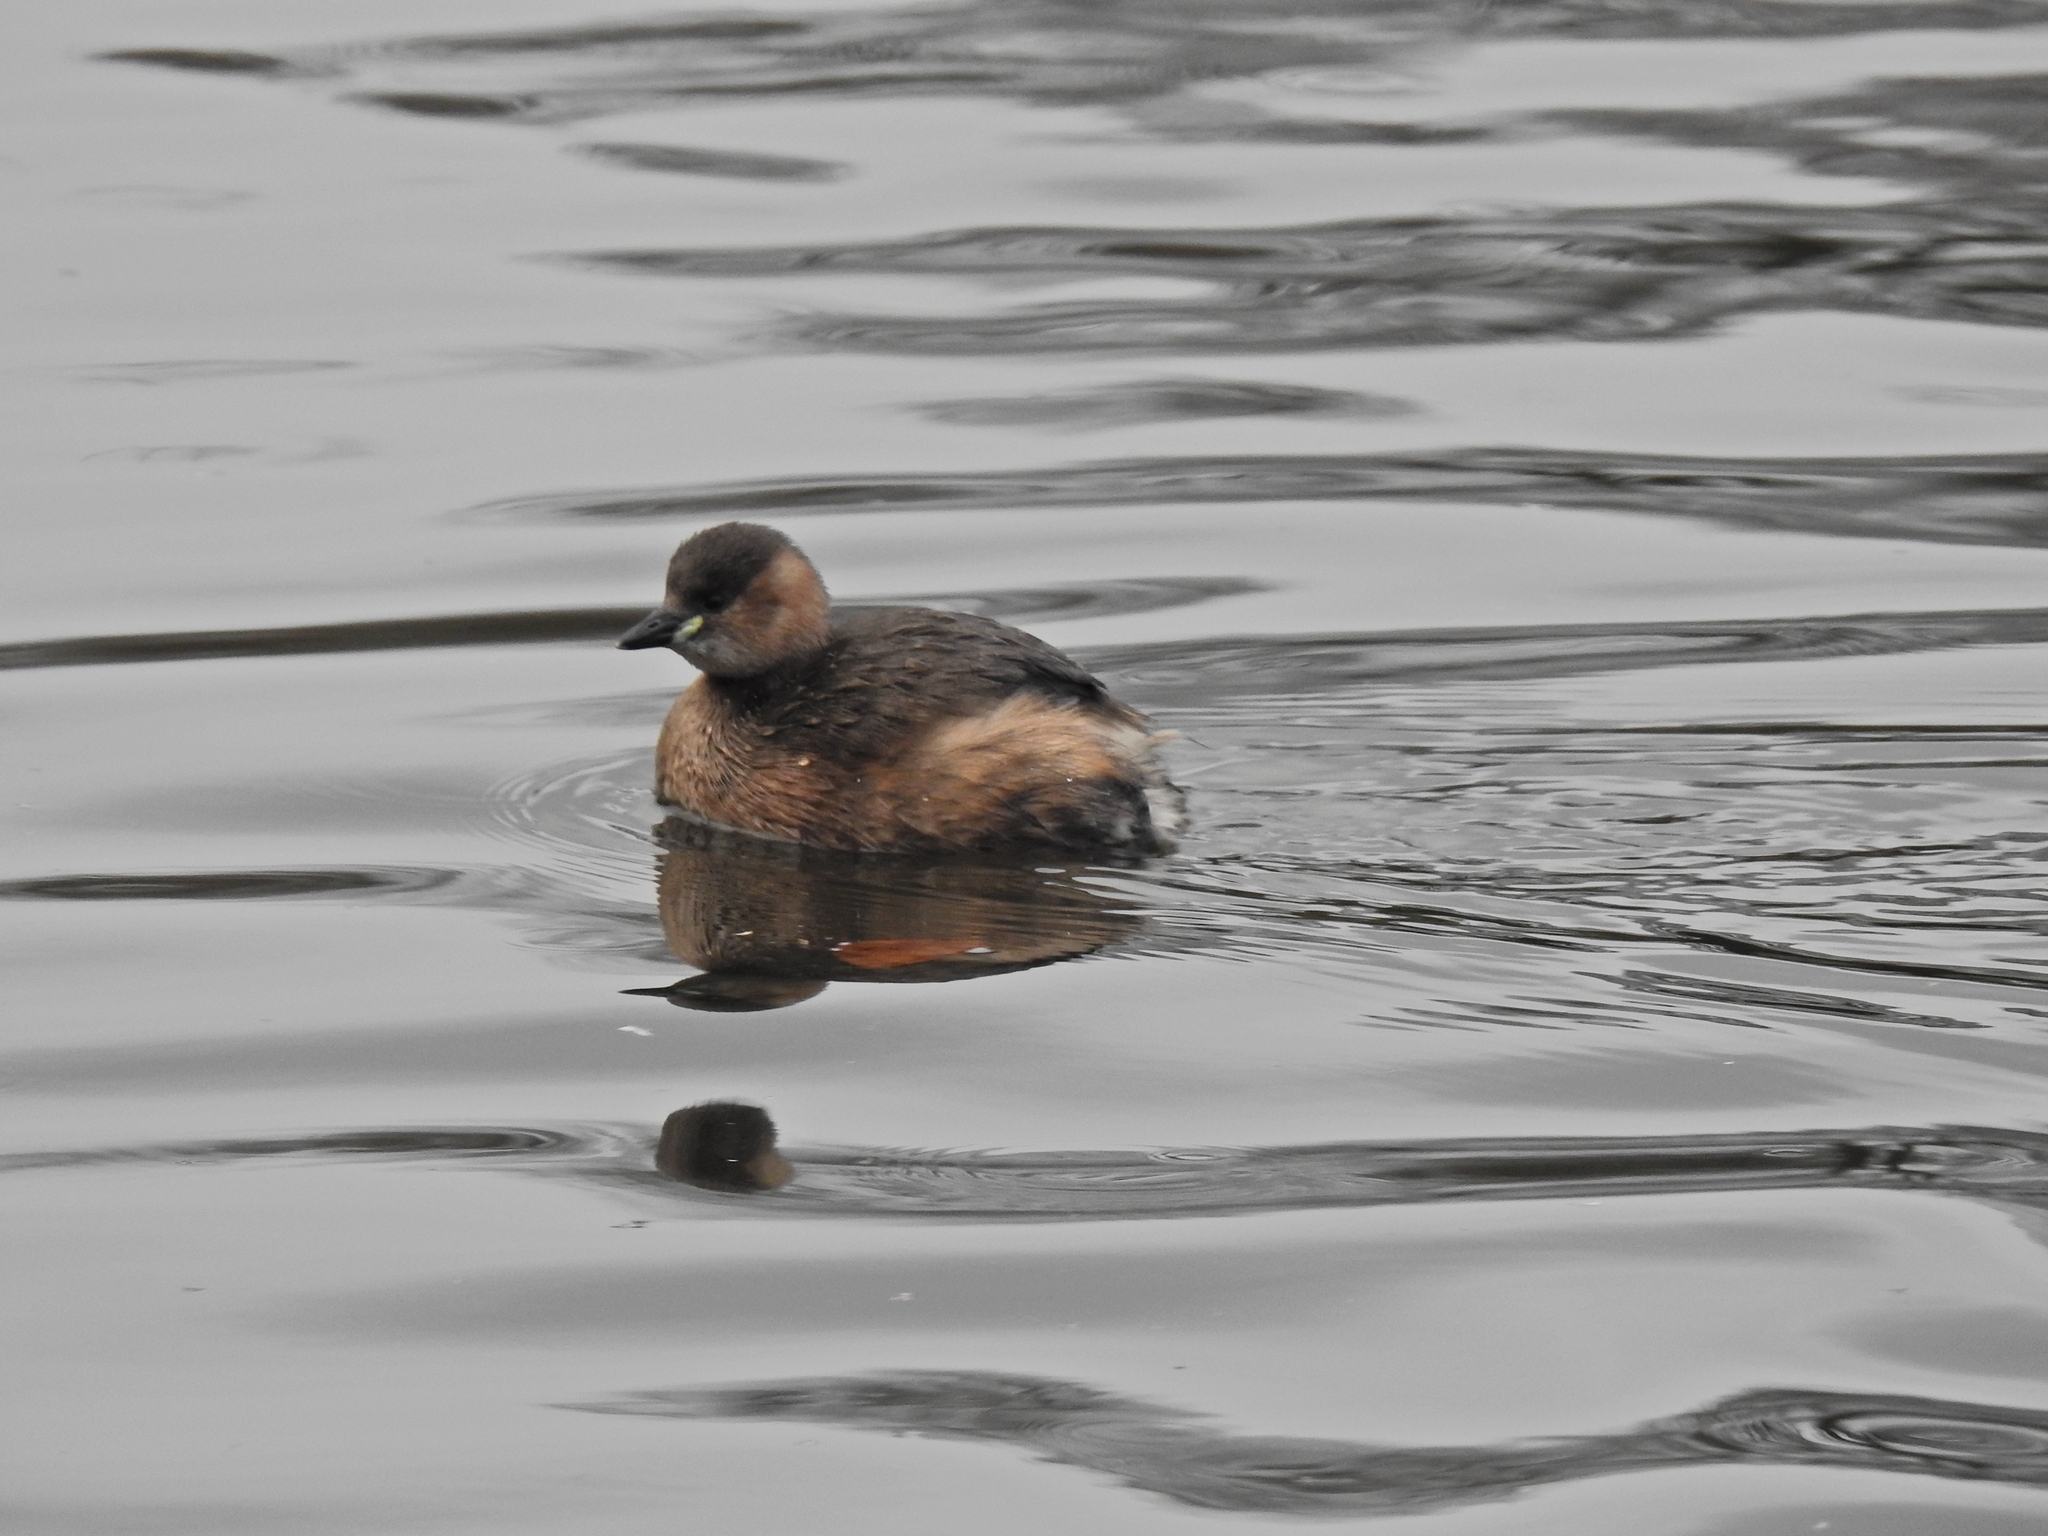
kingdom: Animalia
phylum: Chordata
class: Aves
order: Podicipediformes
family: Podicipedidae
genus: Tachybaptus
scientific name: Tachybaptus ruficollis
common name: Little grebe
